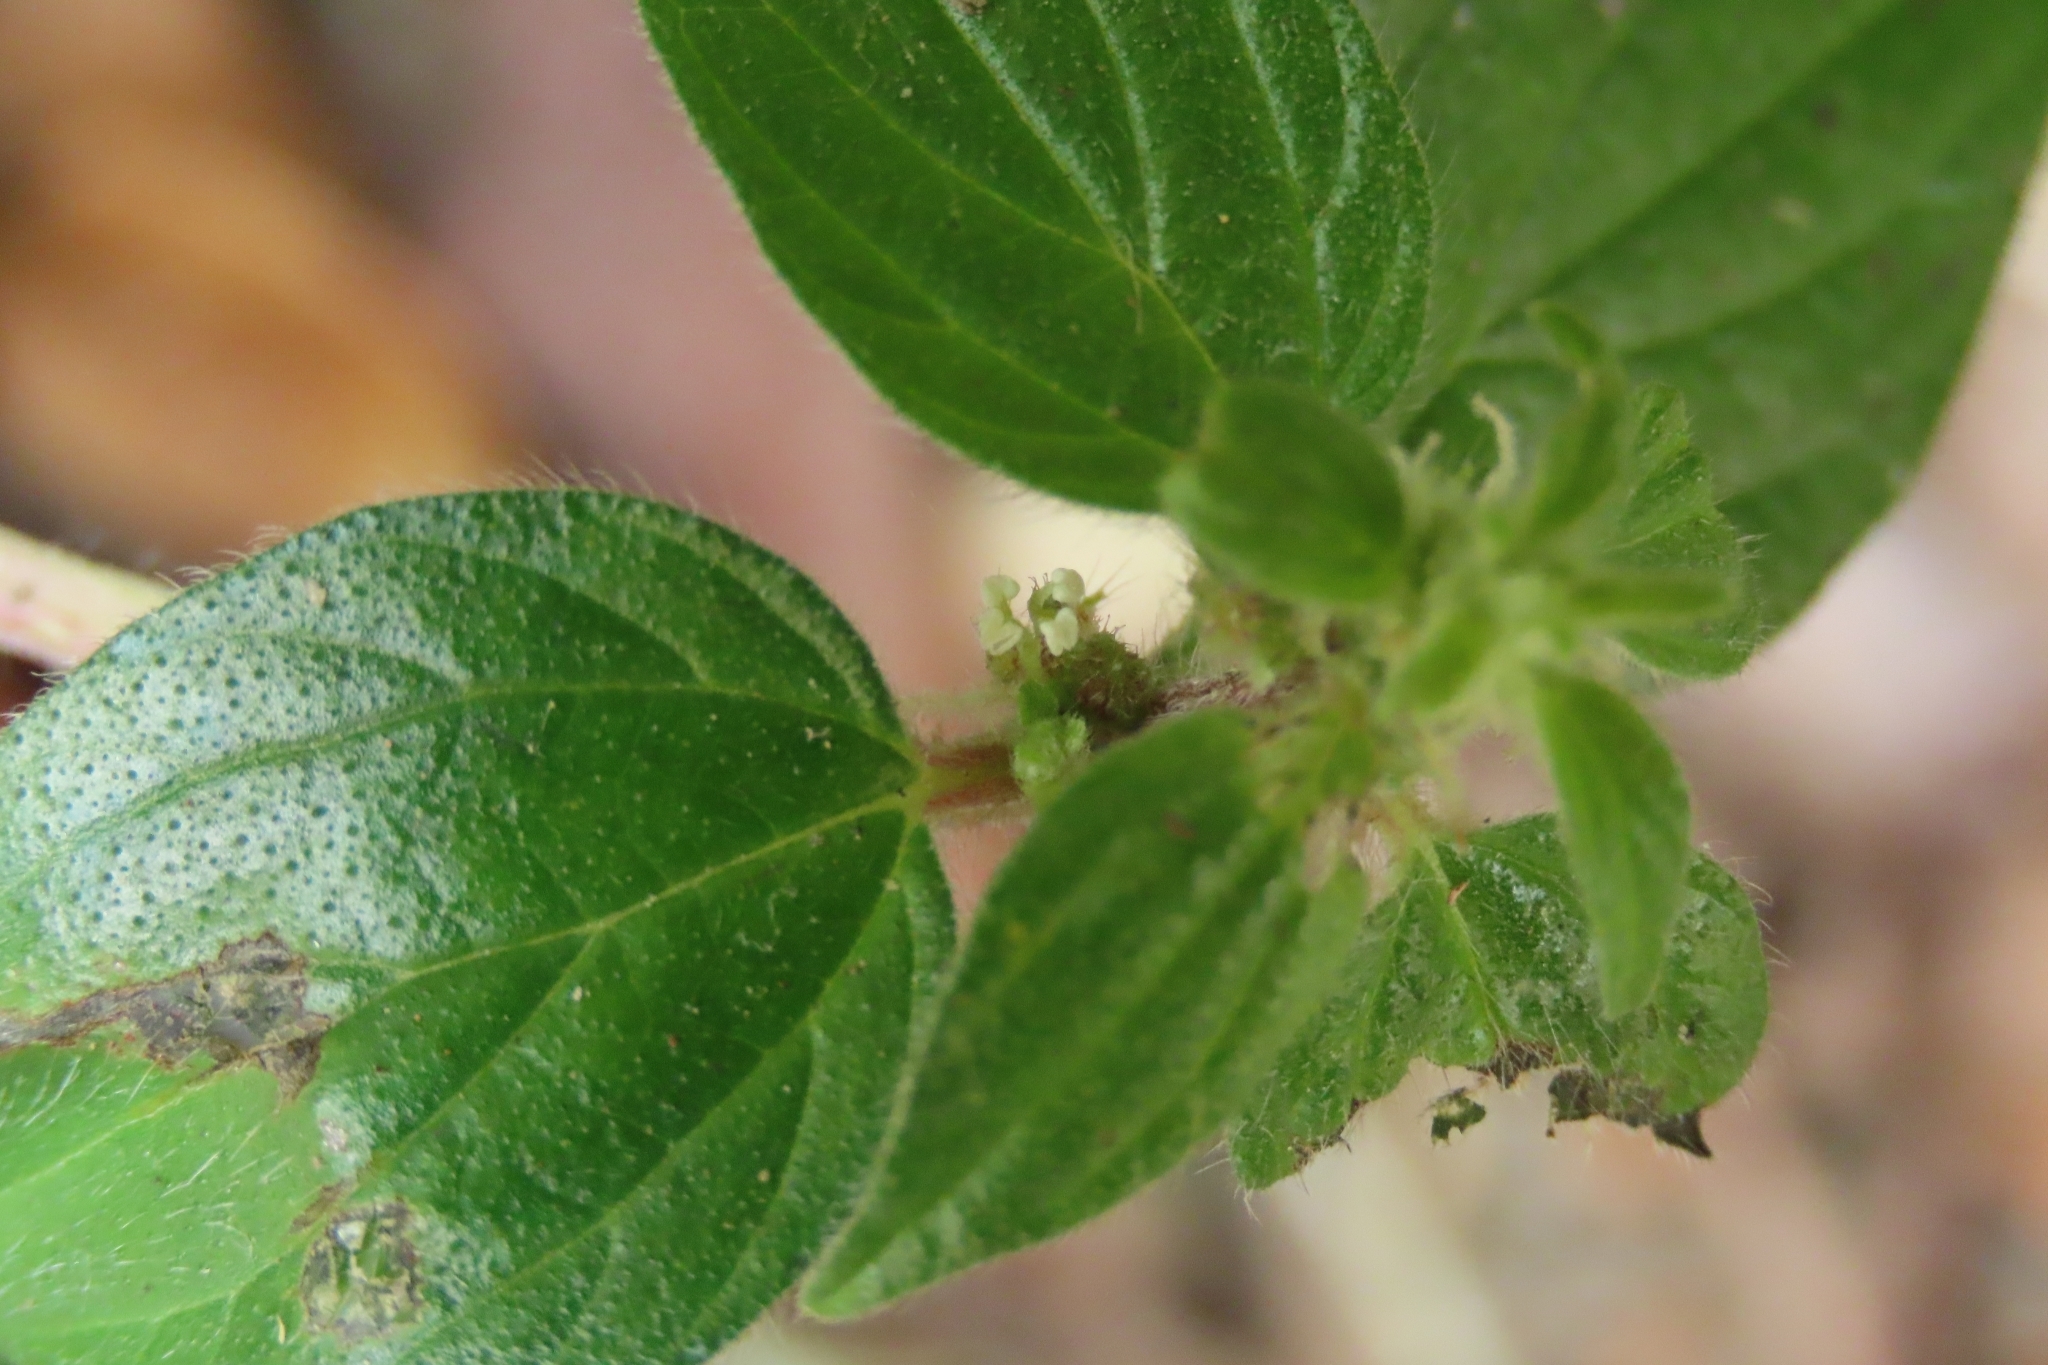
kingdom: Plantae
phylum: Tracheophyta
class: Magnoliopsida
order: Rosales
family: Urticaceae
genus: Pouzolzia
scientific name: Pouzolzia zeylanica
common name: Graceful pouzolzsbush
